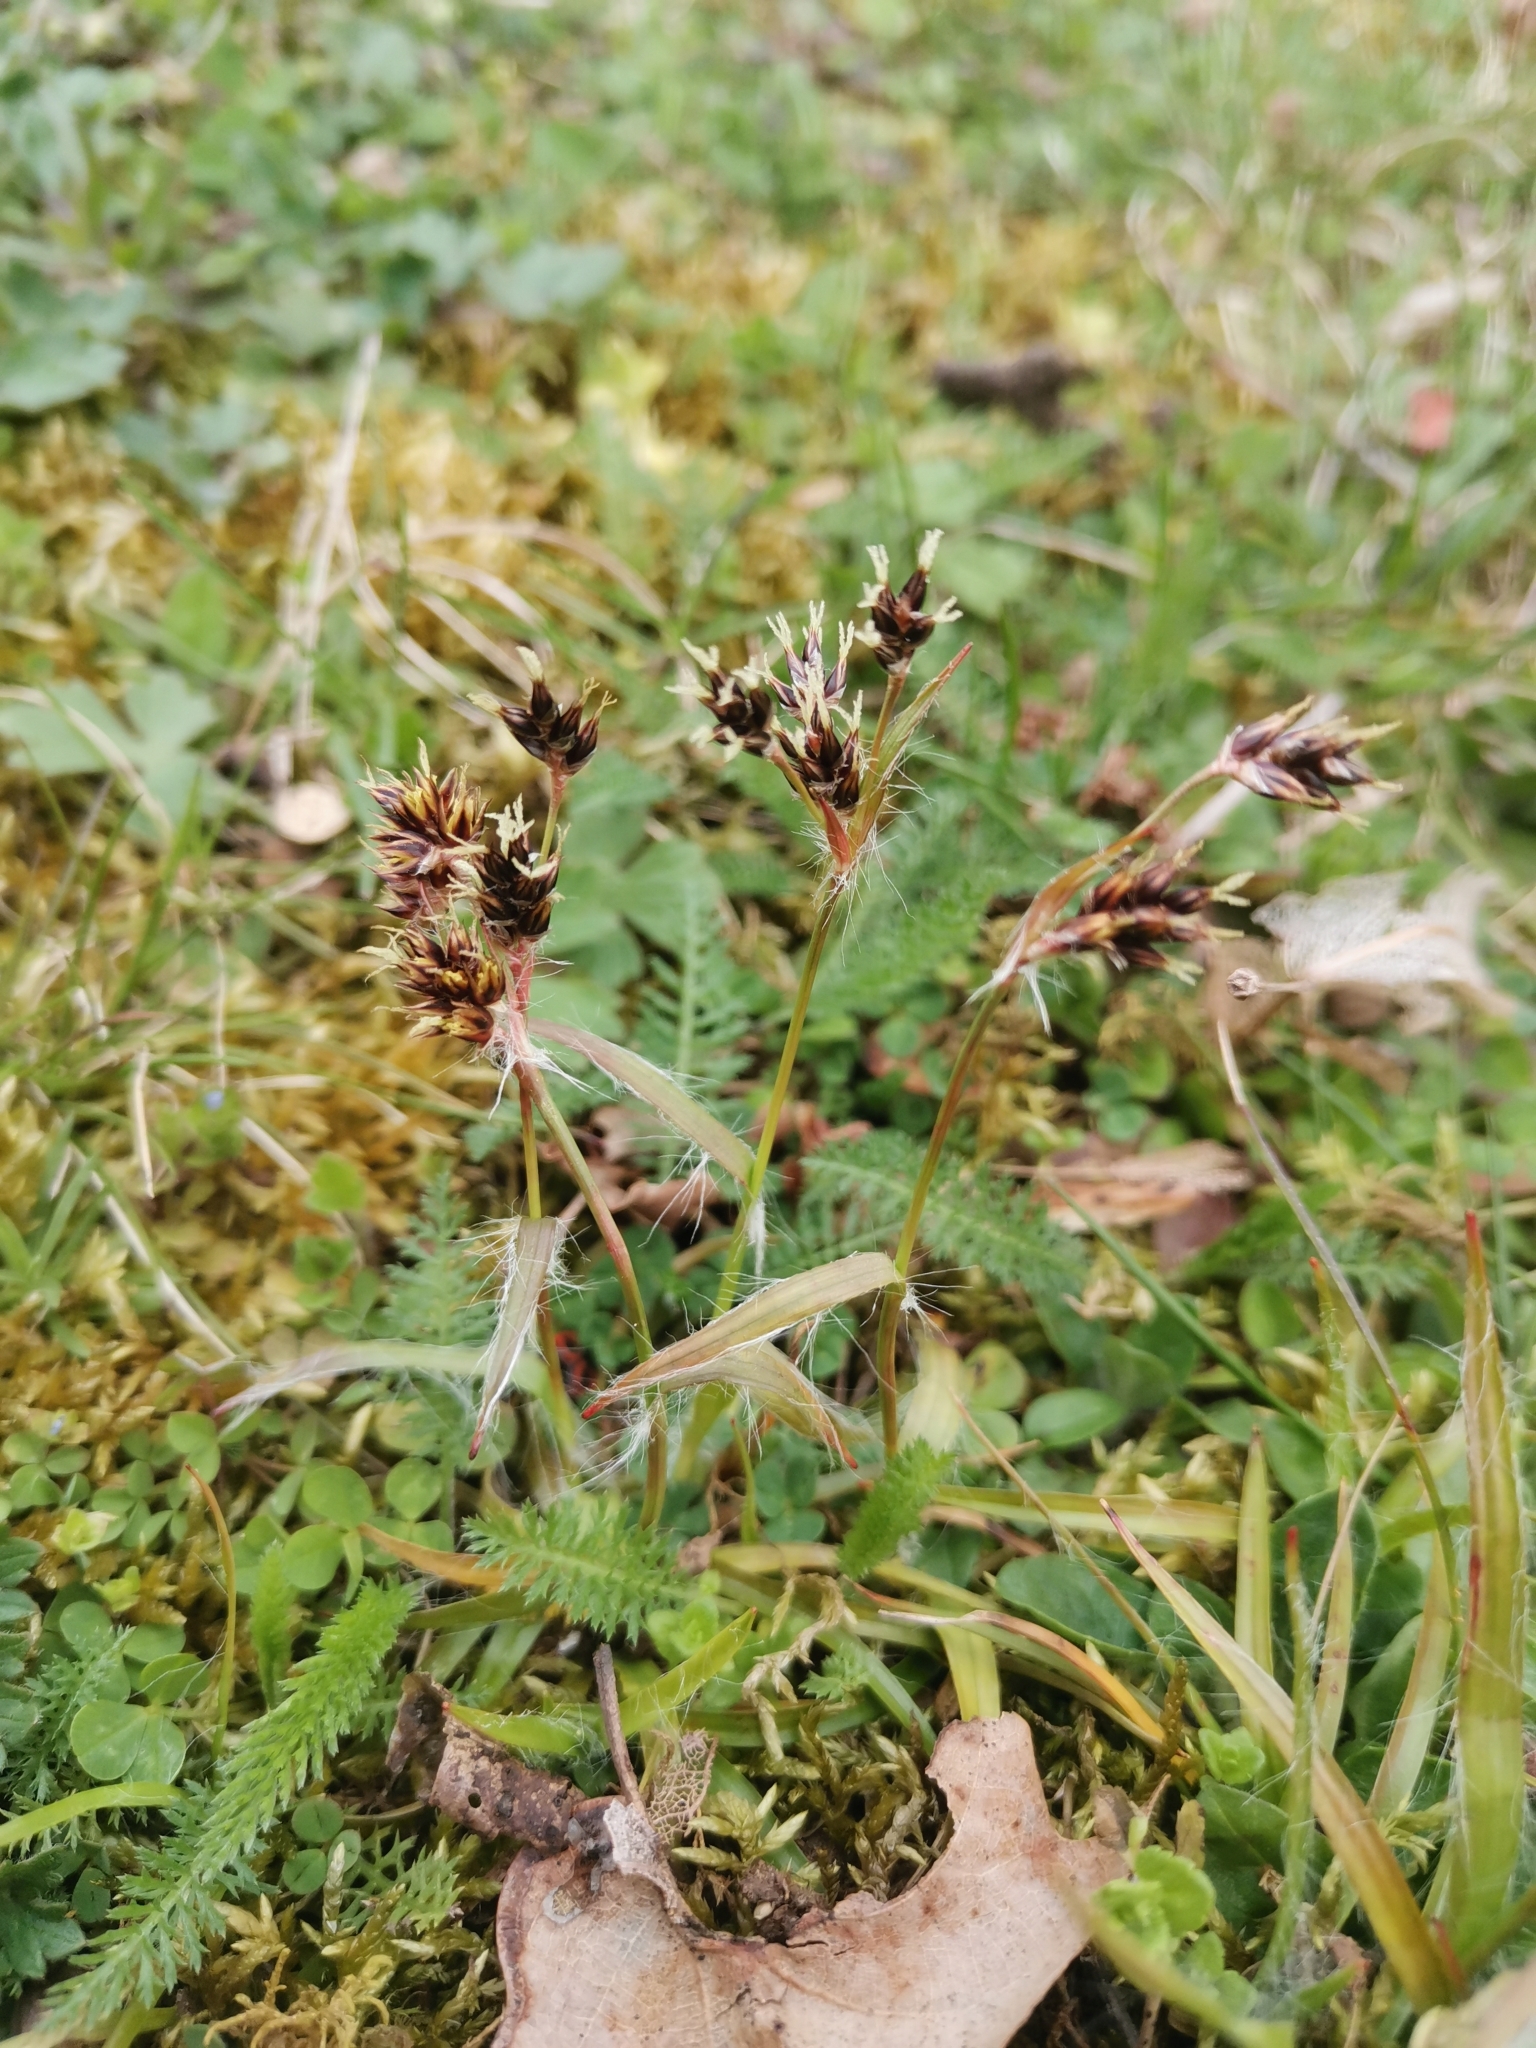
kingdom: Plantae
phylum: Tracheophyta
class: Liliopsida
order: Poales
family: Juncaceae
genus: Luzula
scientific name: Luzula campestris
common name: Field wood-rush
